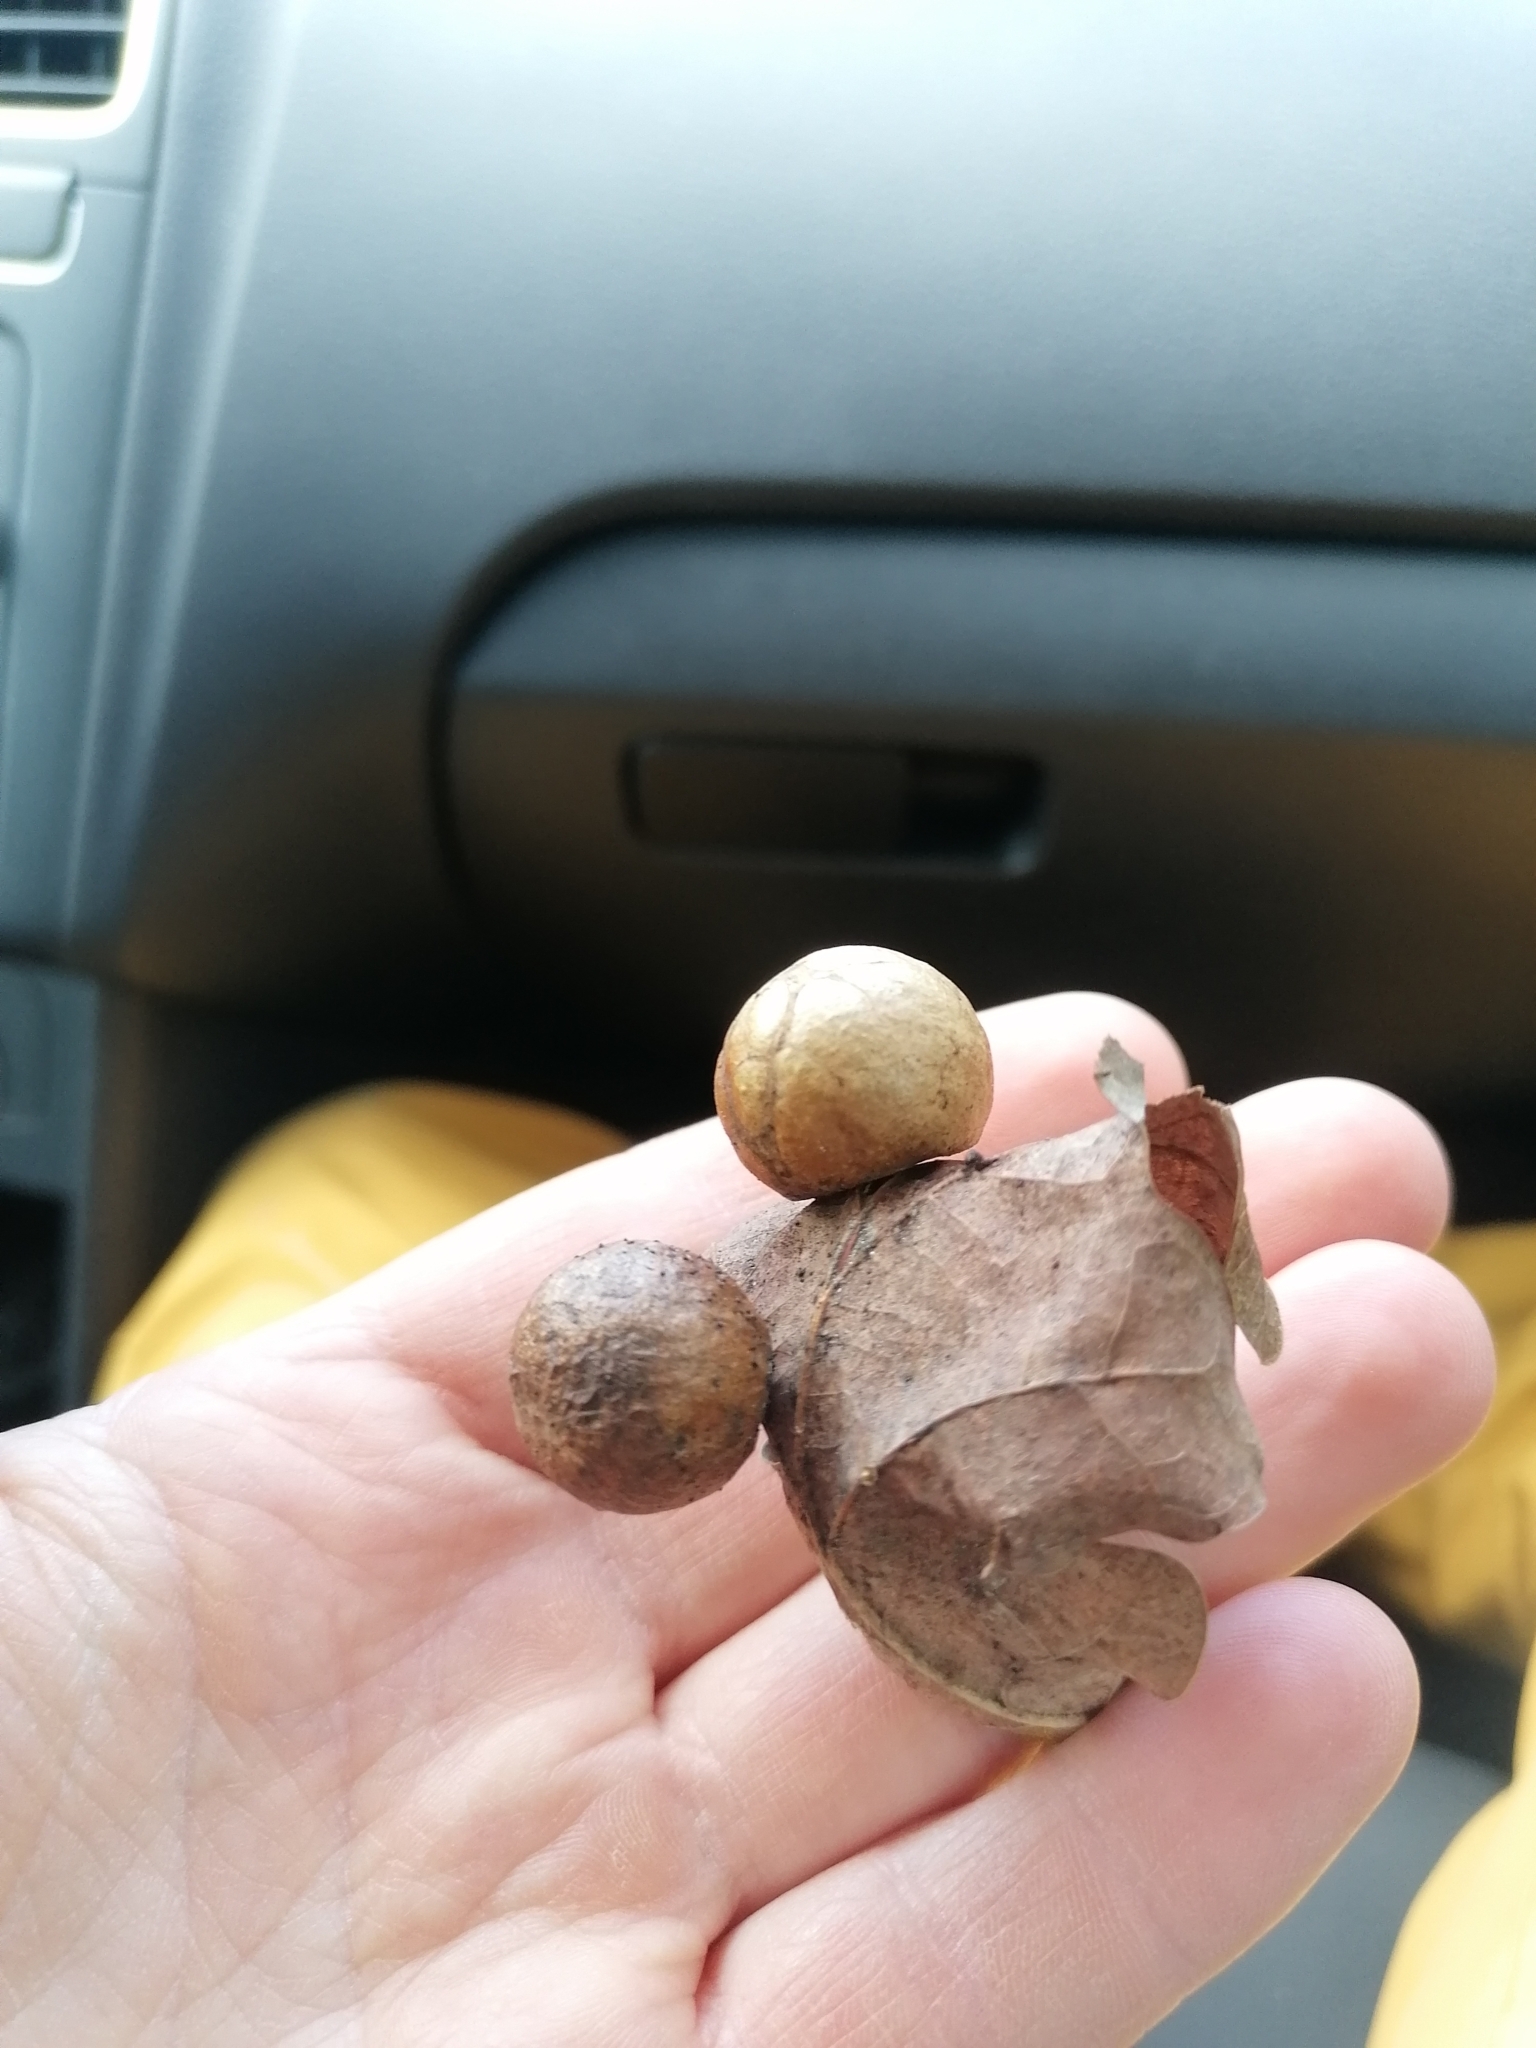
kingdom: Animalia
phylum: Arthropoda
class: Insecta
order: Hymenoptera
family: Cynipidae
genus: Cynips
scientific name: Cynips quercusfolii
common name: Cherry gall
